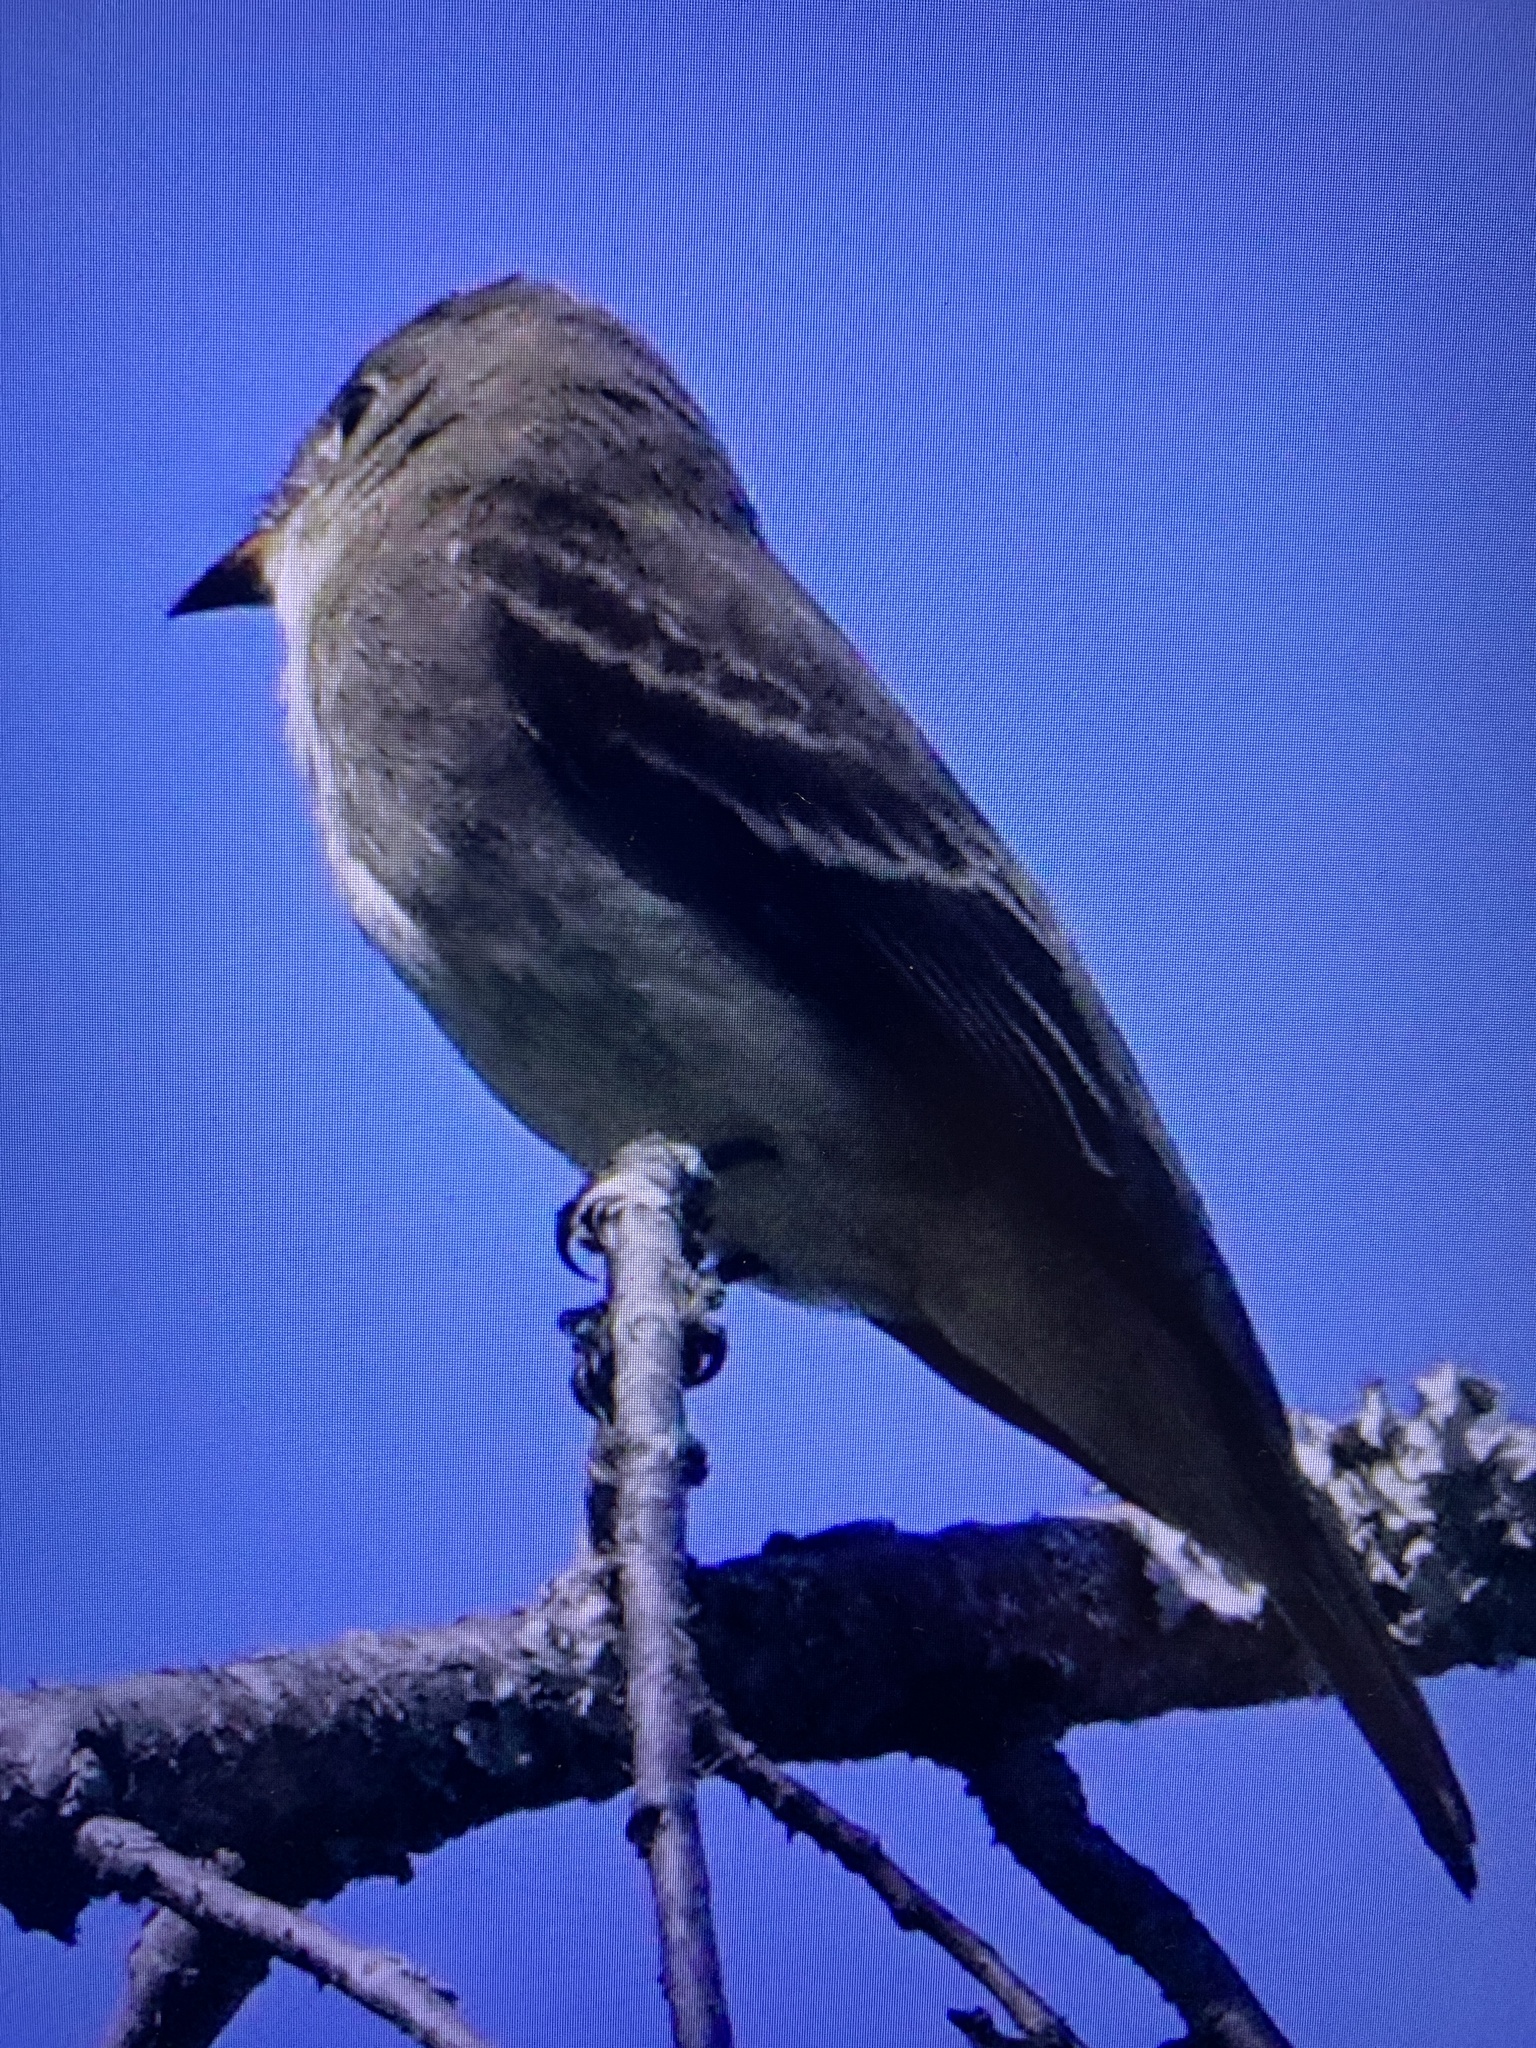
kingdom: Animalia
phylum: Chordata
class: Aves
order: Passeriformes
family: Tyrannidae
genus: Contopus
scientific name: Contopus virens
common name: Eastern wood-pewee
